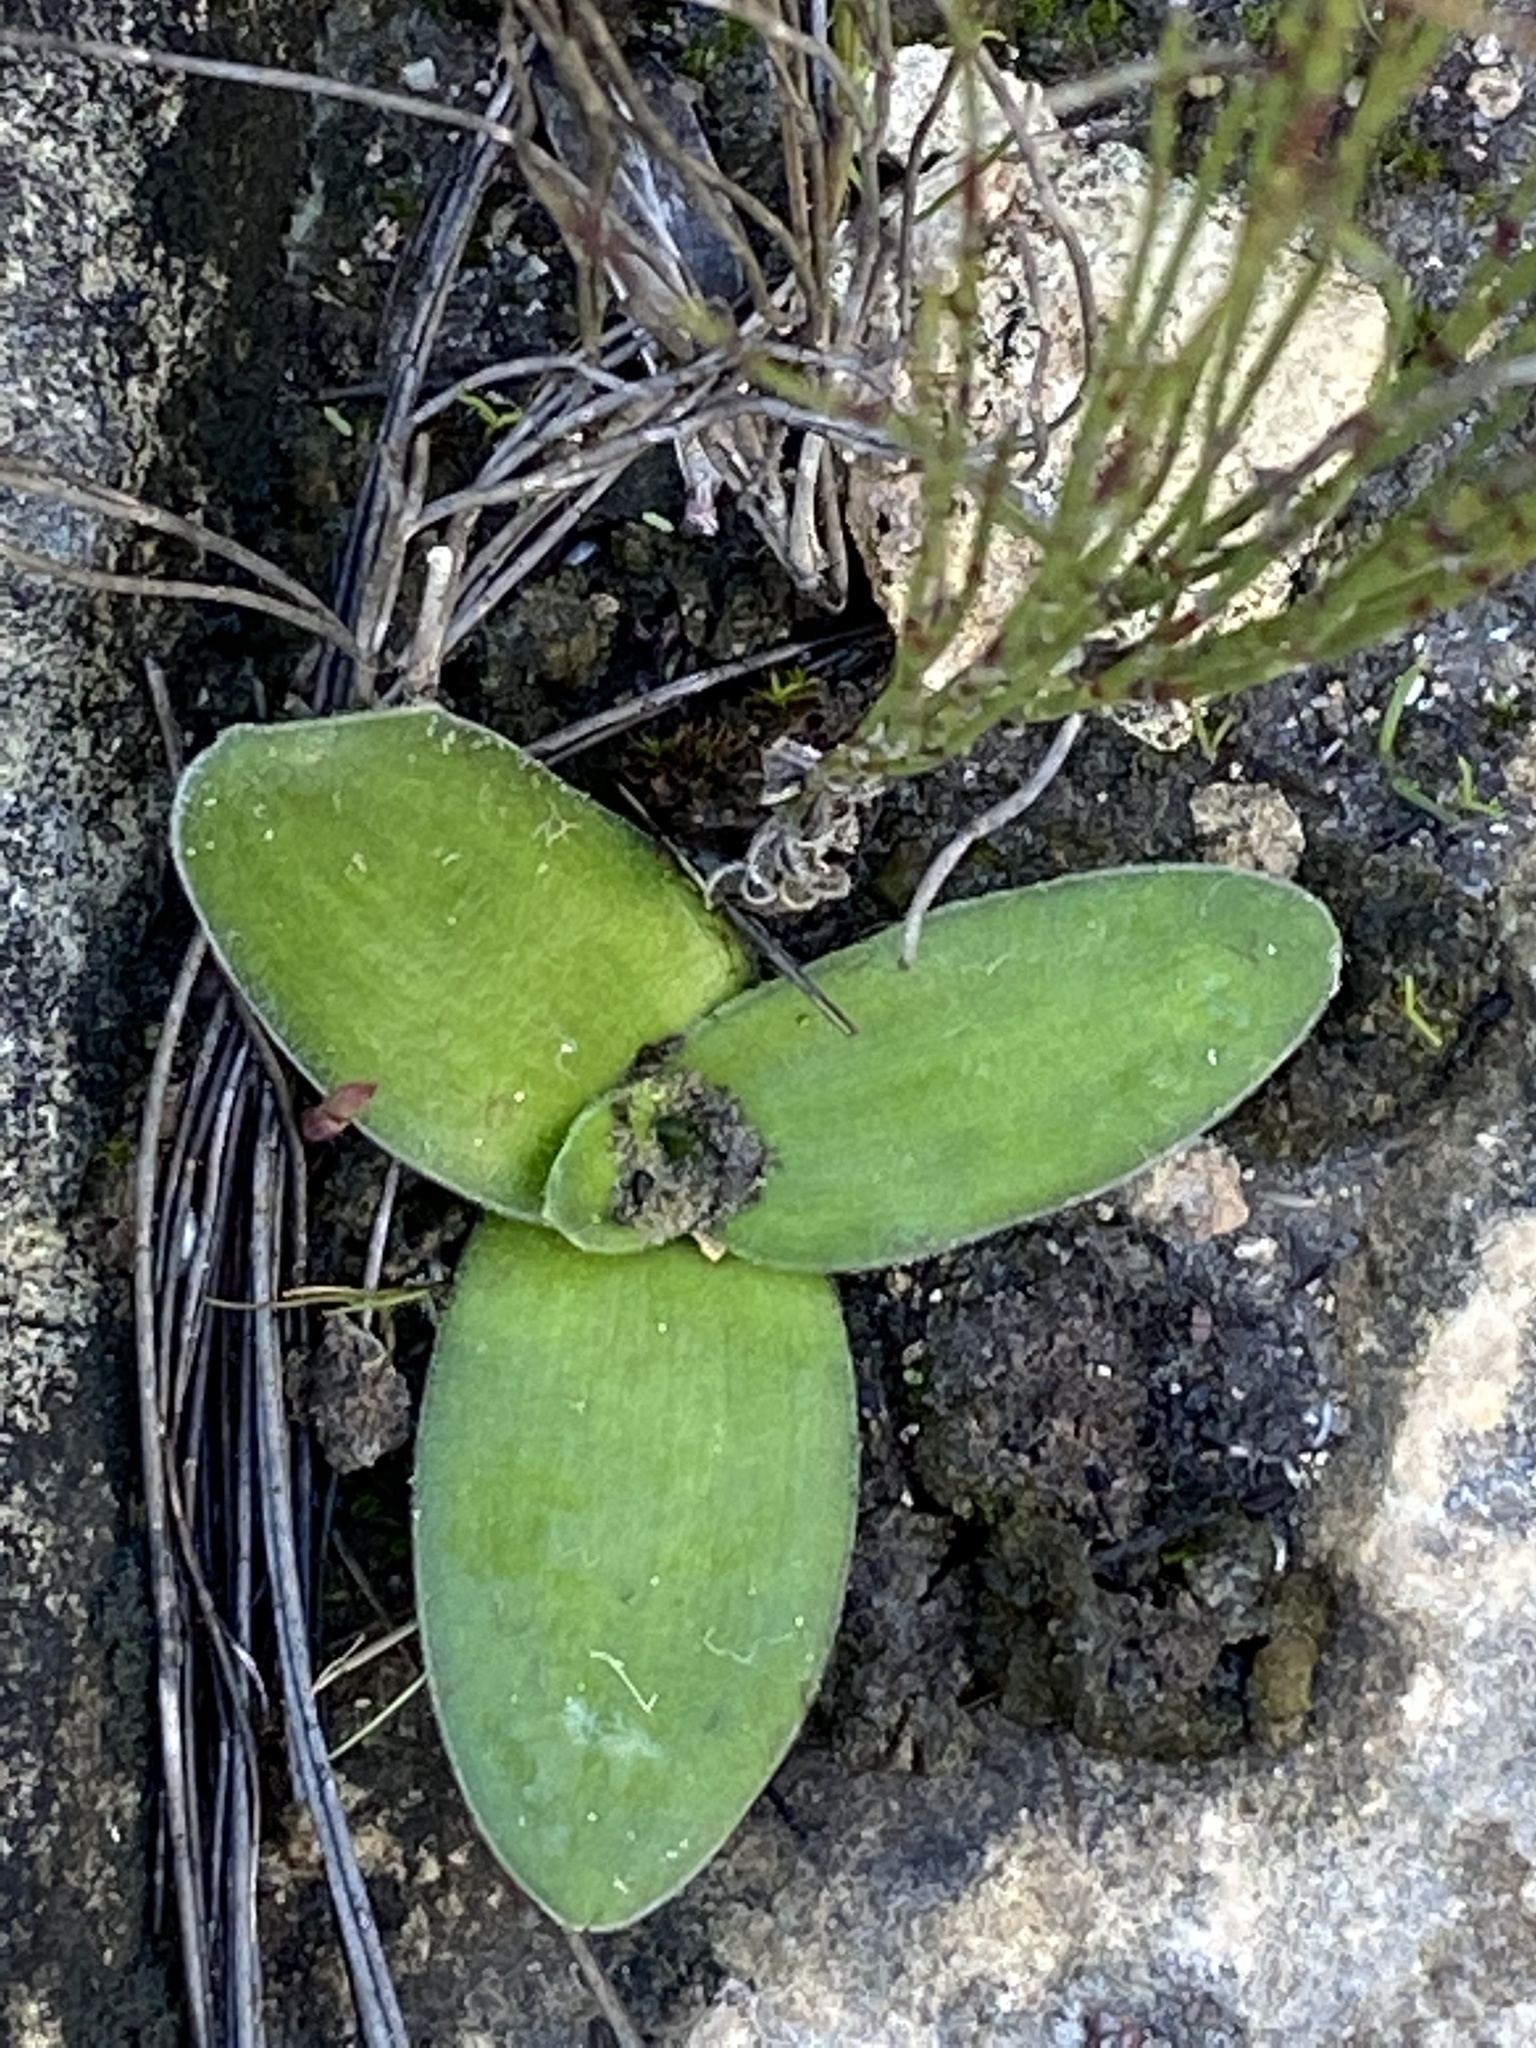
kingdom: Plantae
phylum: Tracheophyta
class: Liliopsida
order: Asparagales
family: Asparagaceae
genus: Ornithogalum
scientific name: Ornithogalum dubium
